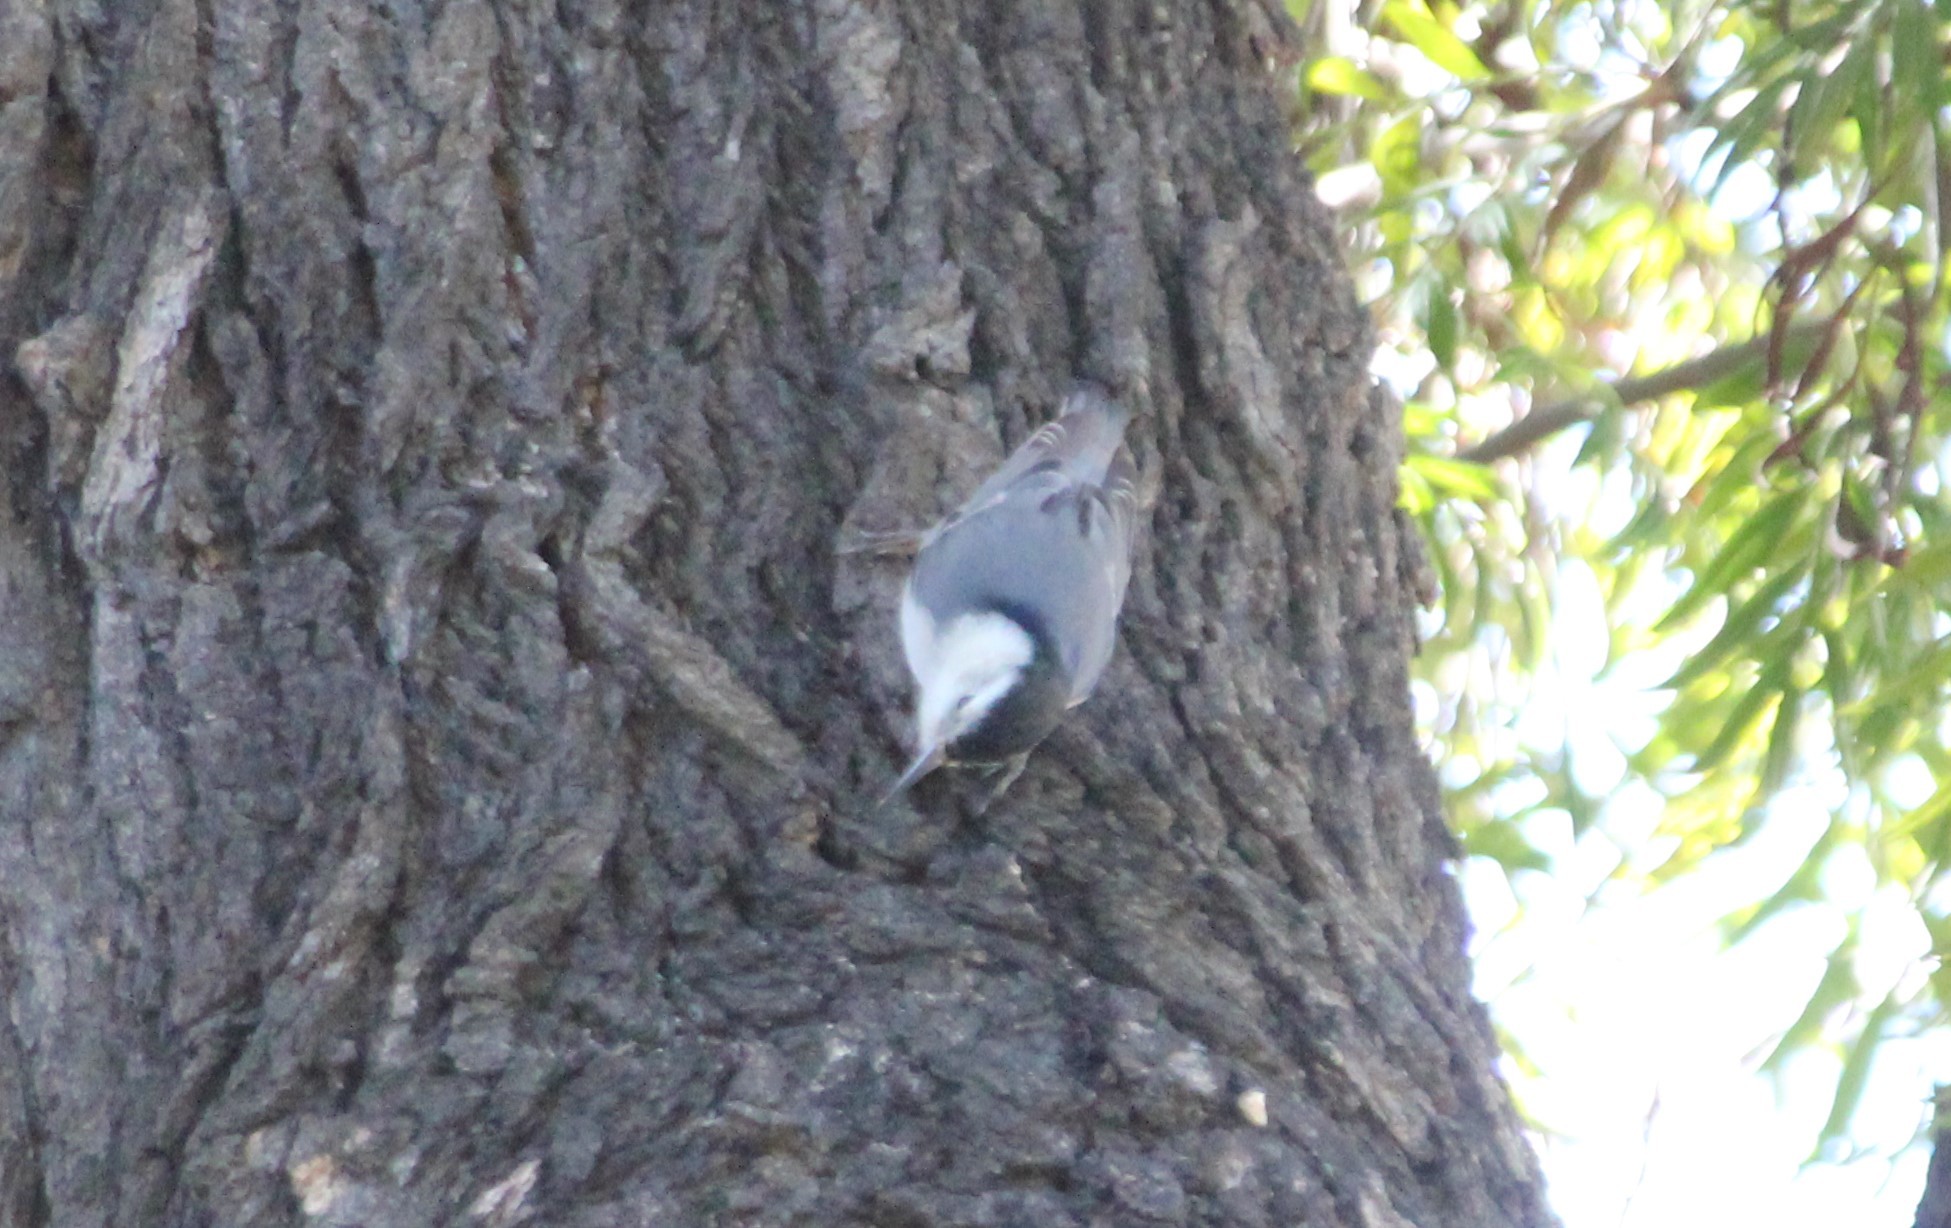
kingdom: Animalia
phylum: Chordata
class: Aves
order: Passeriformes
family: Sittidae
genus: Sitta
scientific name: Sitta carolinensis
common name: White-breasted nuthatch
